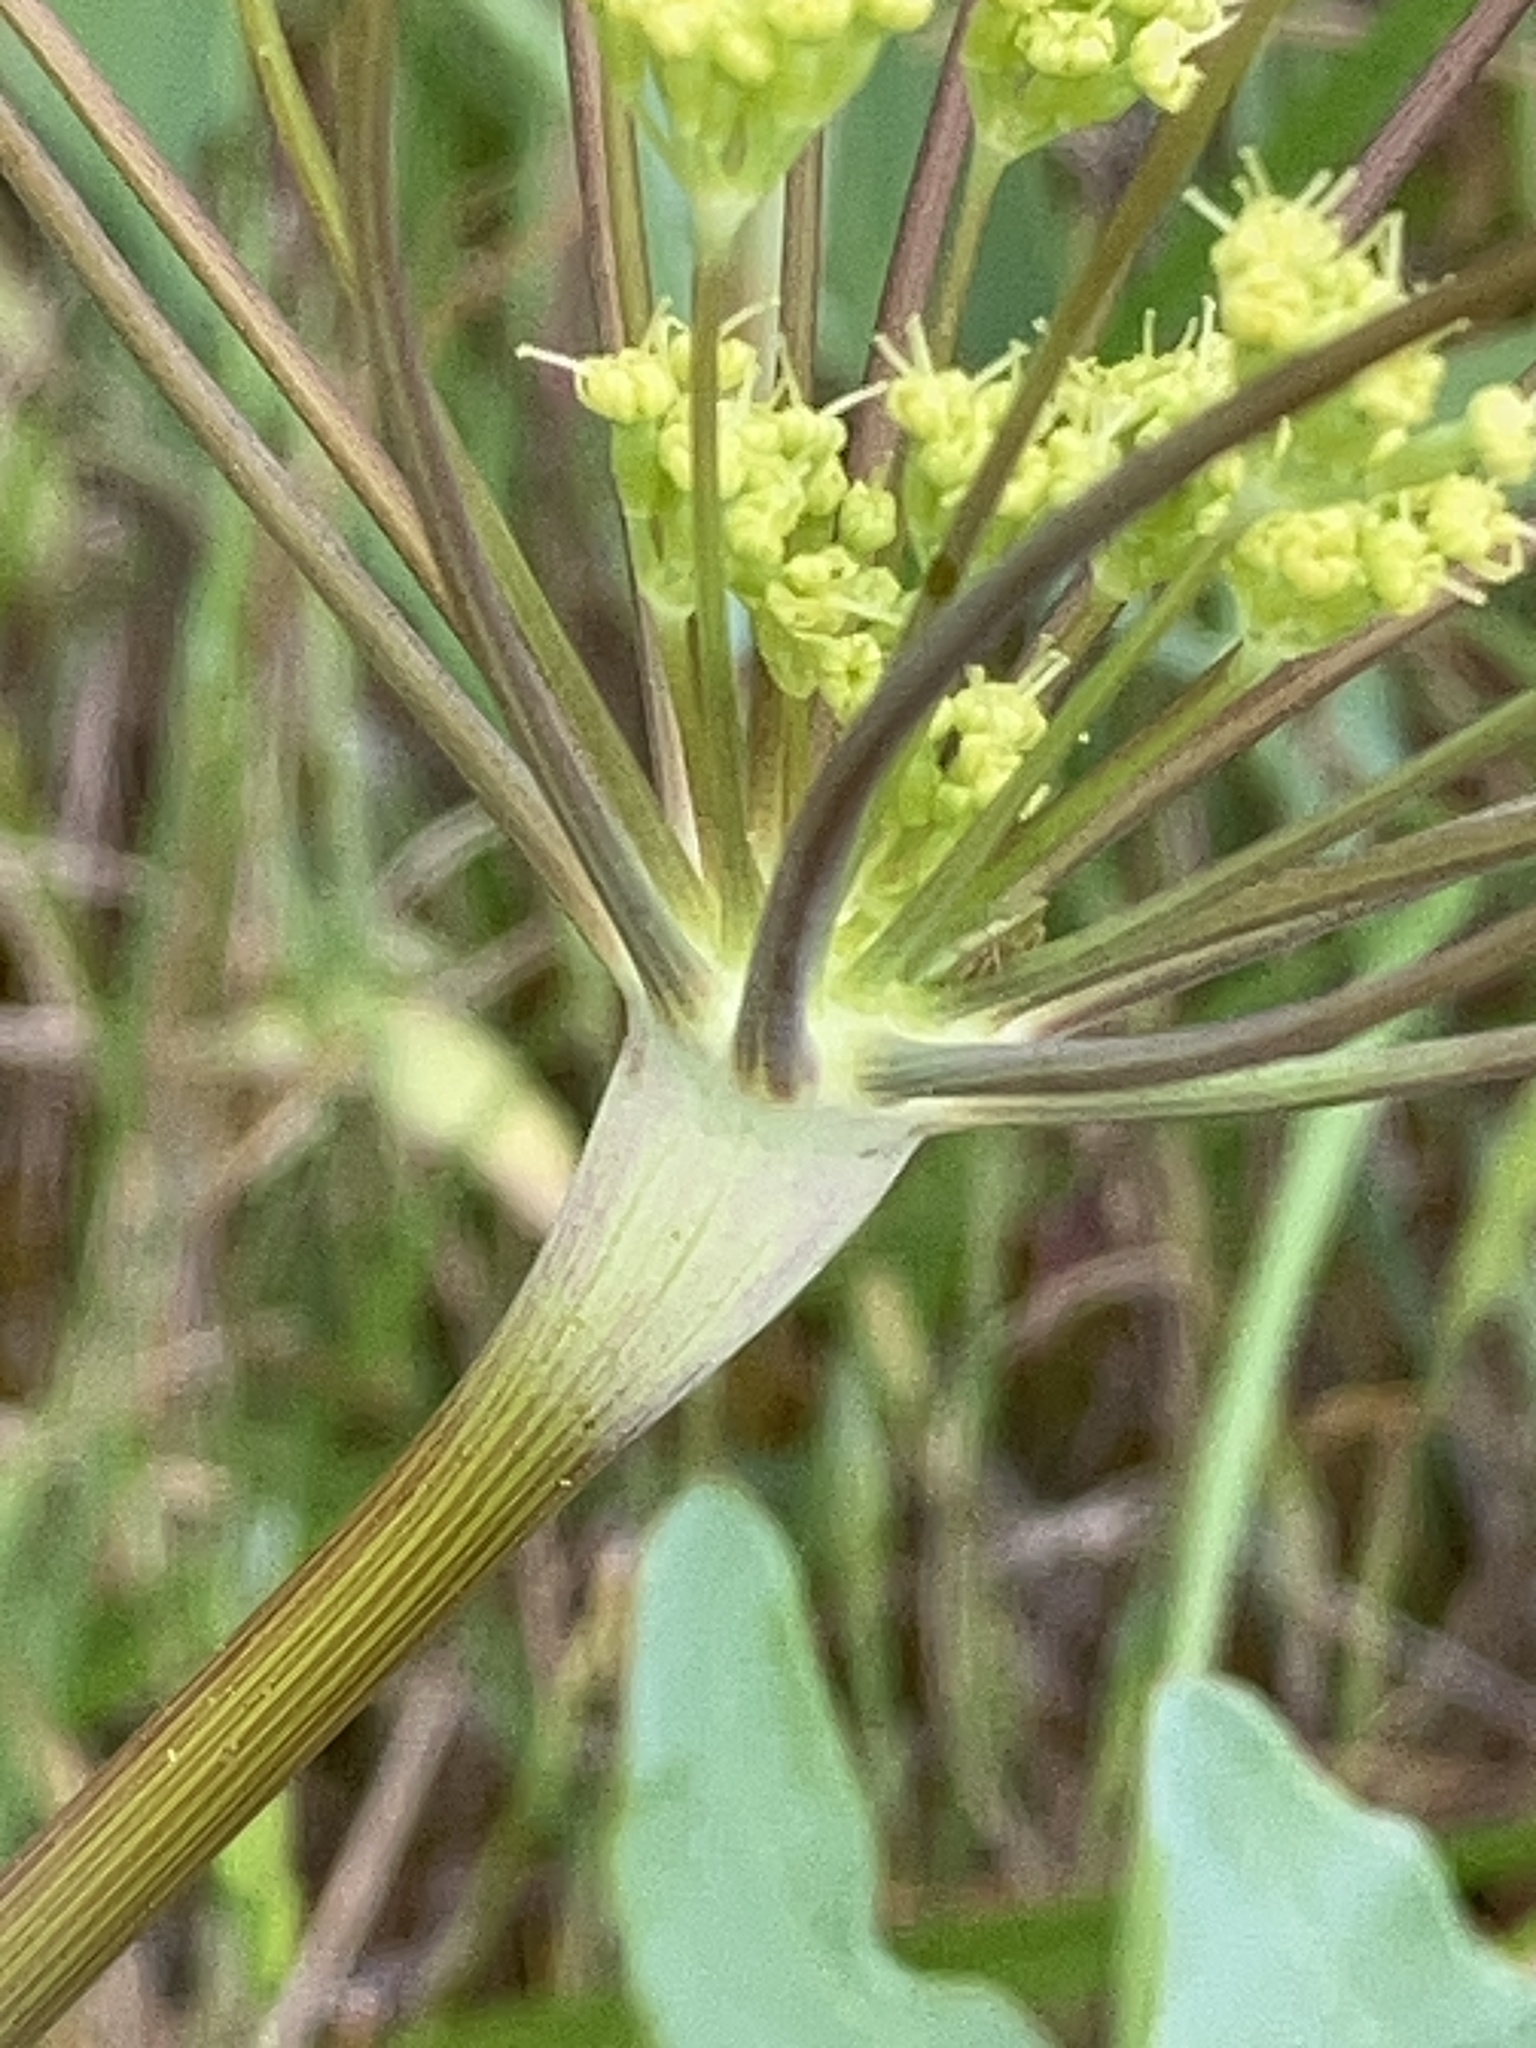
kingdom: Plantae
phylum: Tracheophyta
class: Magnoliopsida
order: Apiales
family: Apiaceae
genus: Lomatium
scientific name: Lomatium nudicaule
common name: Pestle lomatium
